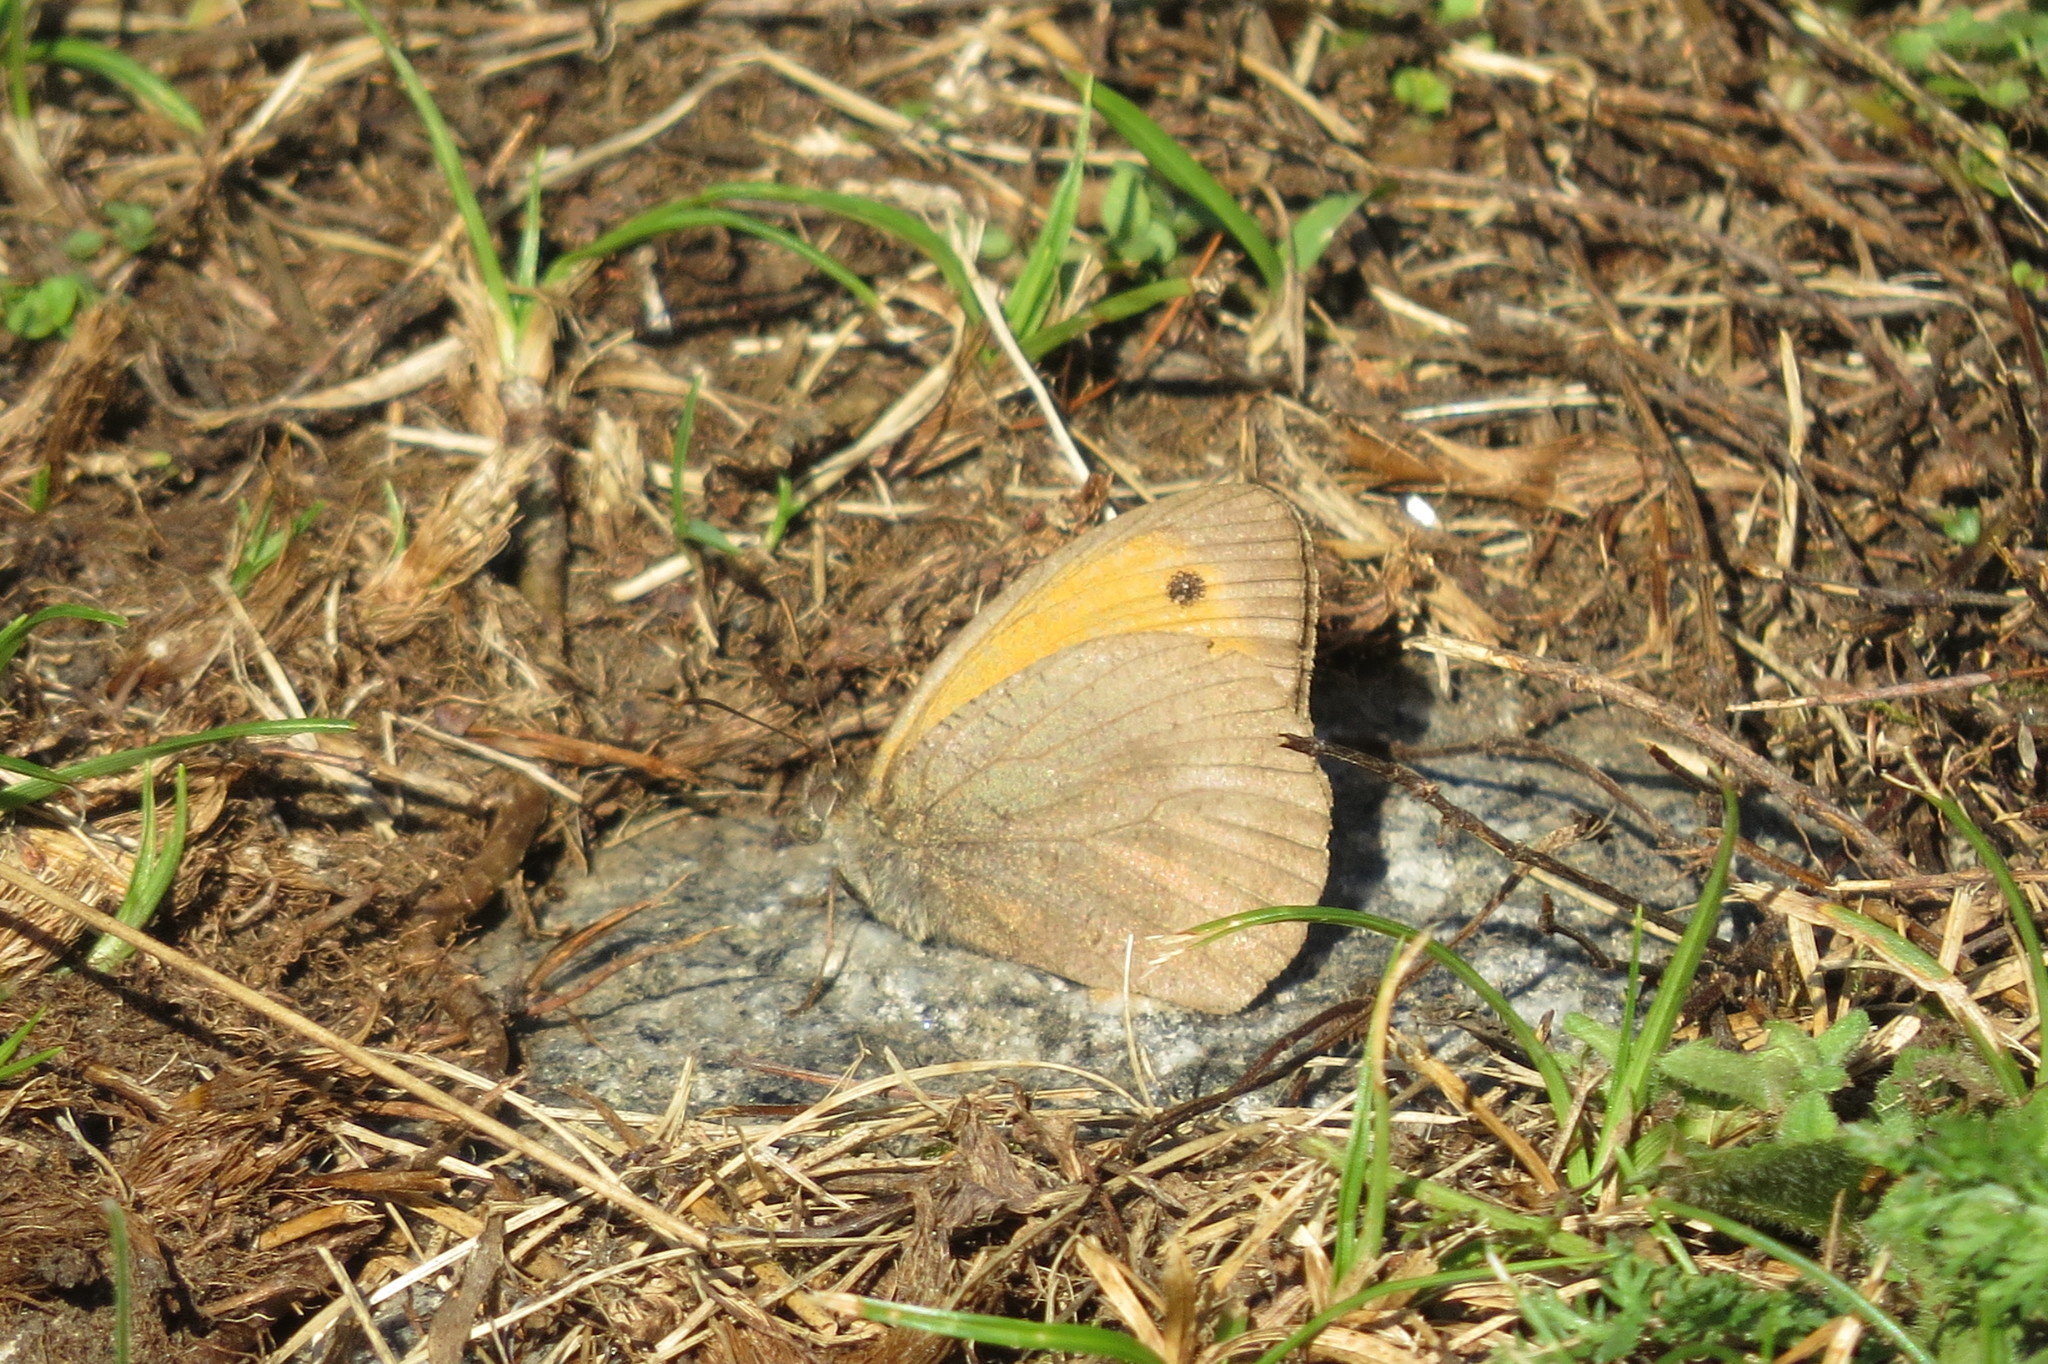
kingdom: Animalia
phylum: Arthropoda
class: Insecta
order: Lepidoptera
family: Nymphalidae
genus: Maniola
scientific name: Maniola jurtina
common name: Meadow brown
